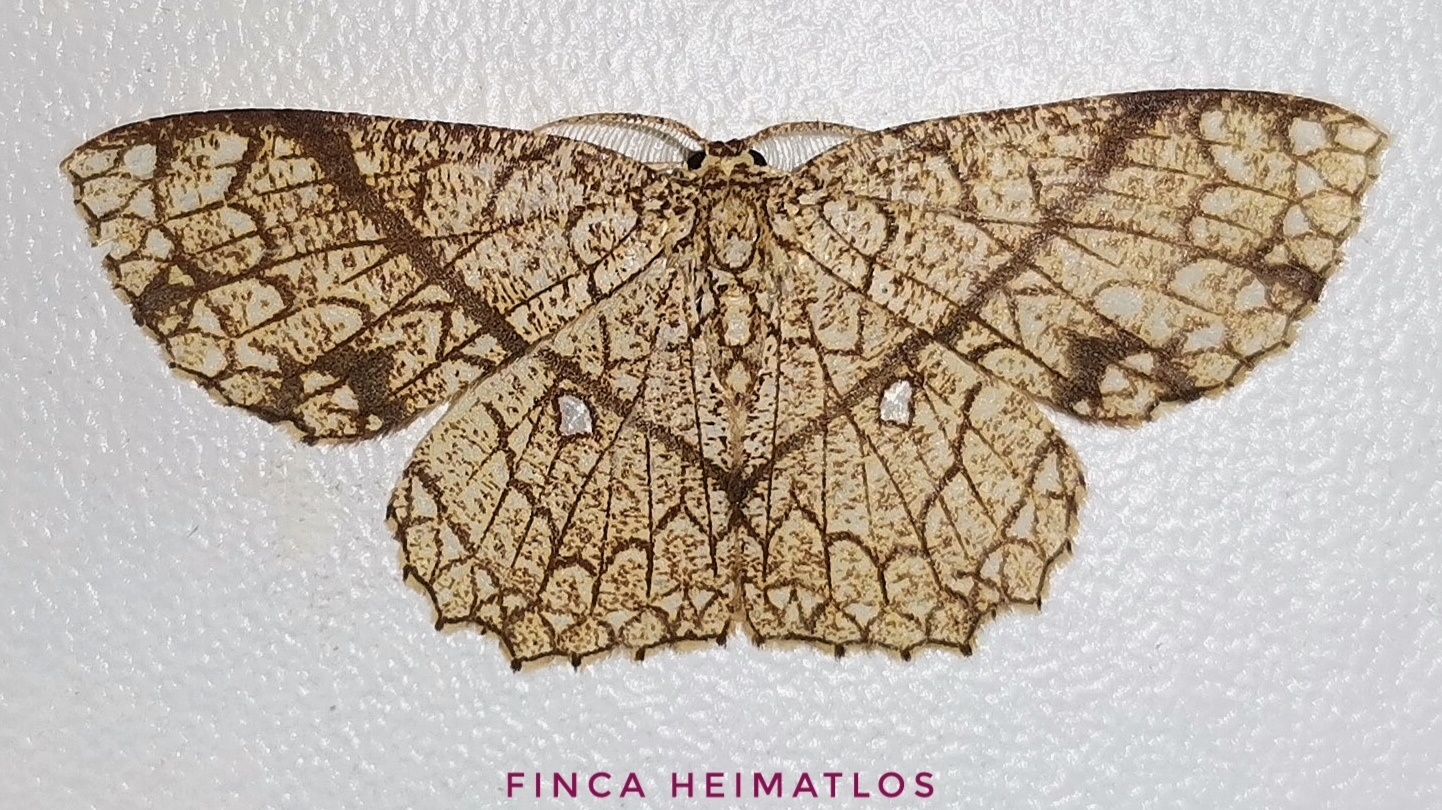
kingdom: Animalia
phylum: Arthropoda
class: Insecta
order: Lepidoptera
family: Geometridae
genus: Cyclophora
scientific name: Cyclophora insigniata
